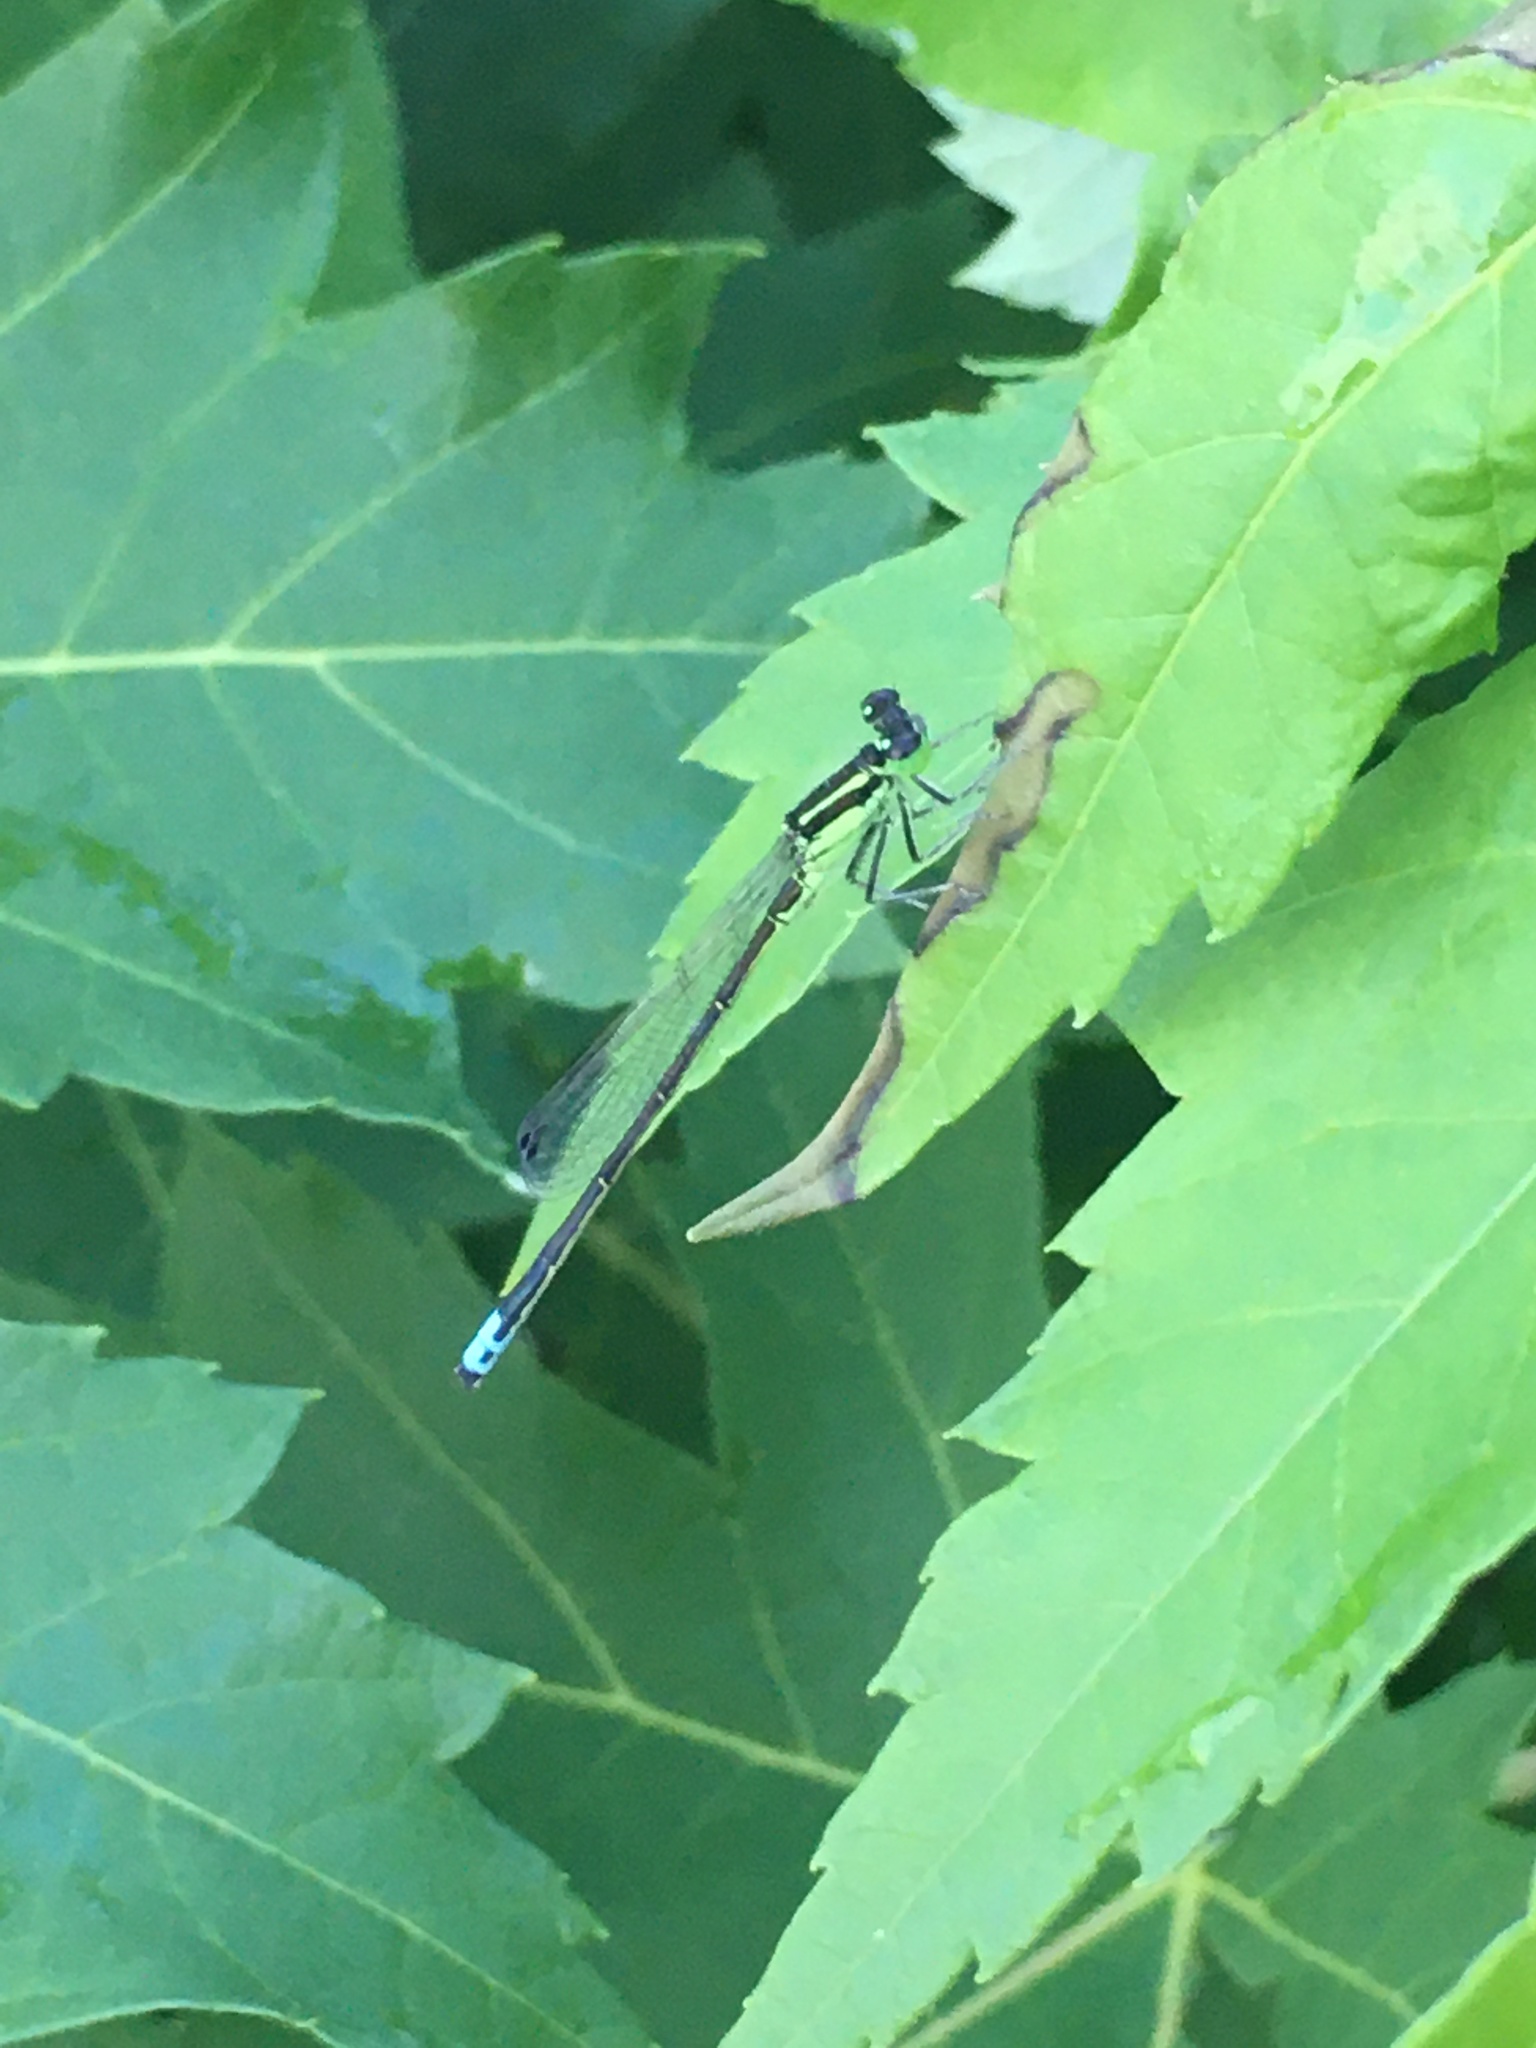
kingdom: Animalia
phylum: Arthropoda
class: Insecta
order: Odonata
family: Coenagrionidae
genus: Ischnura
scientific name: Ischnura verticalis
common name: Eastern forktail
